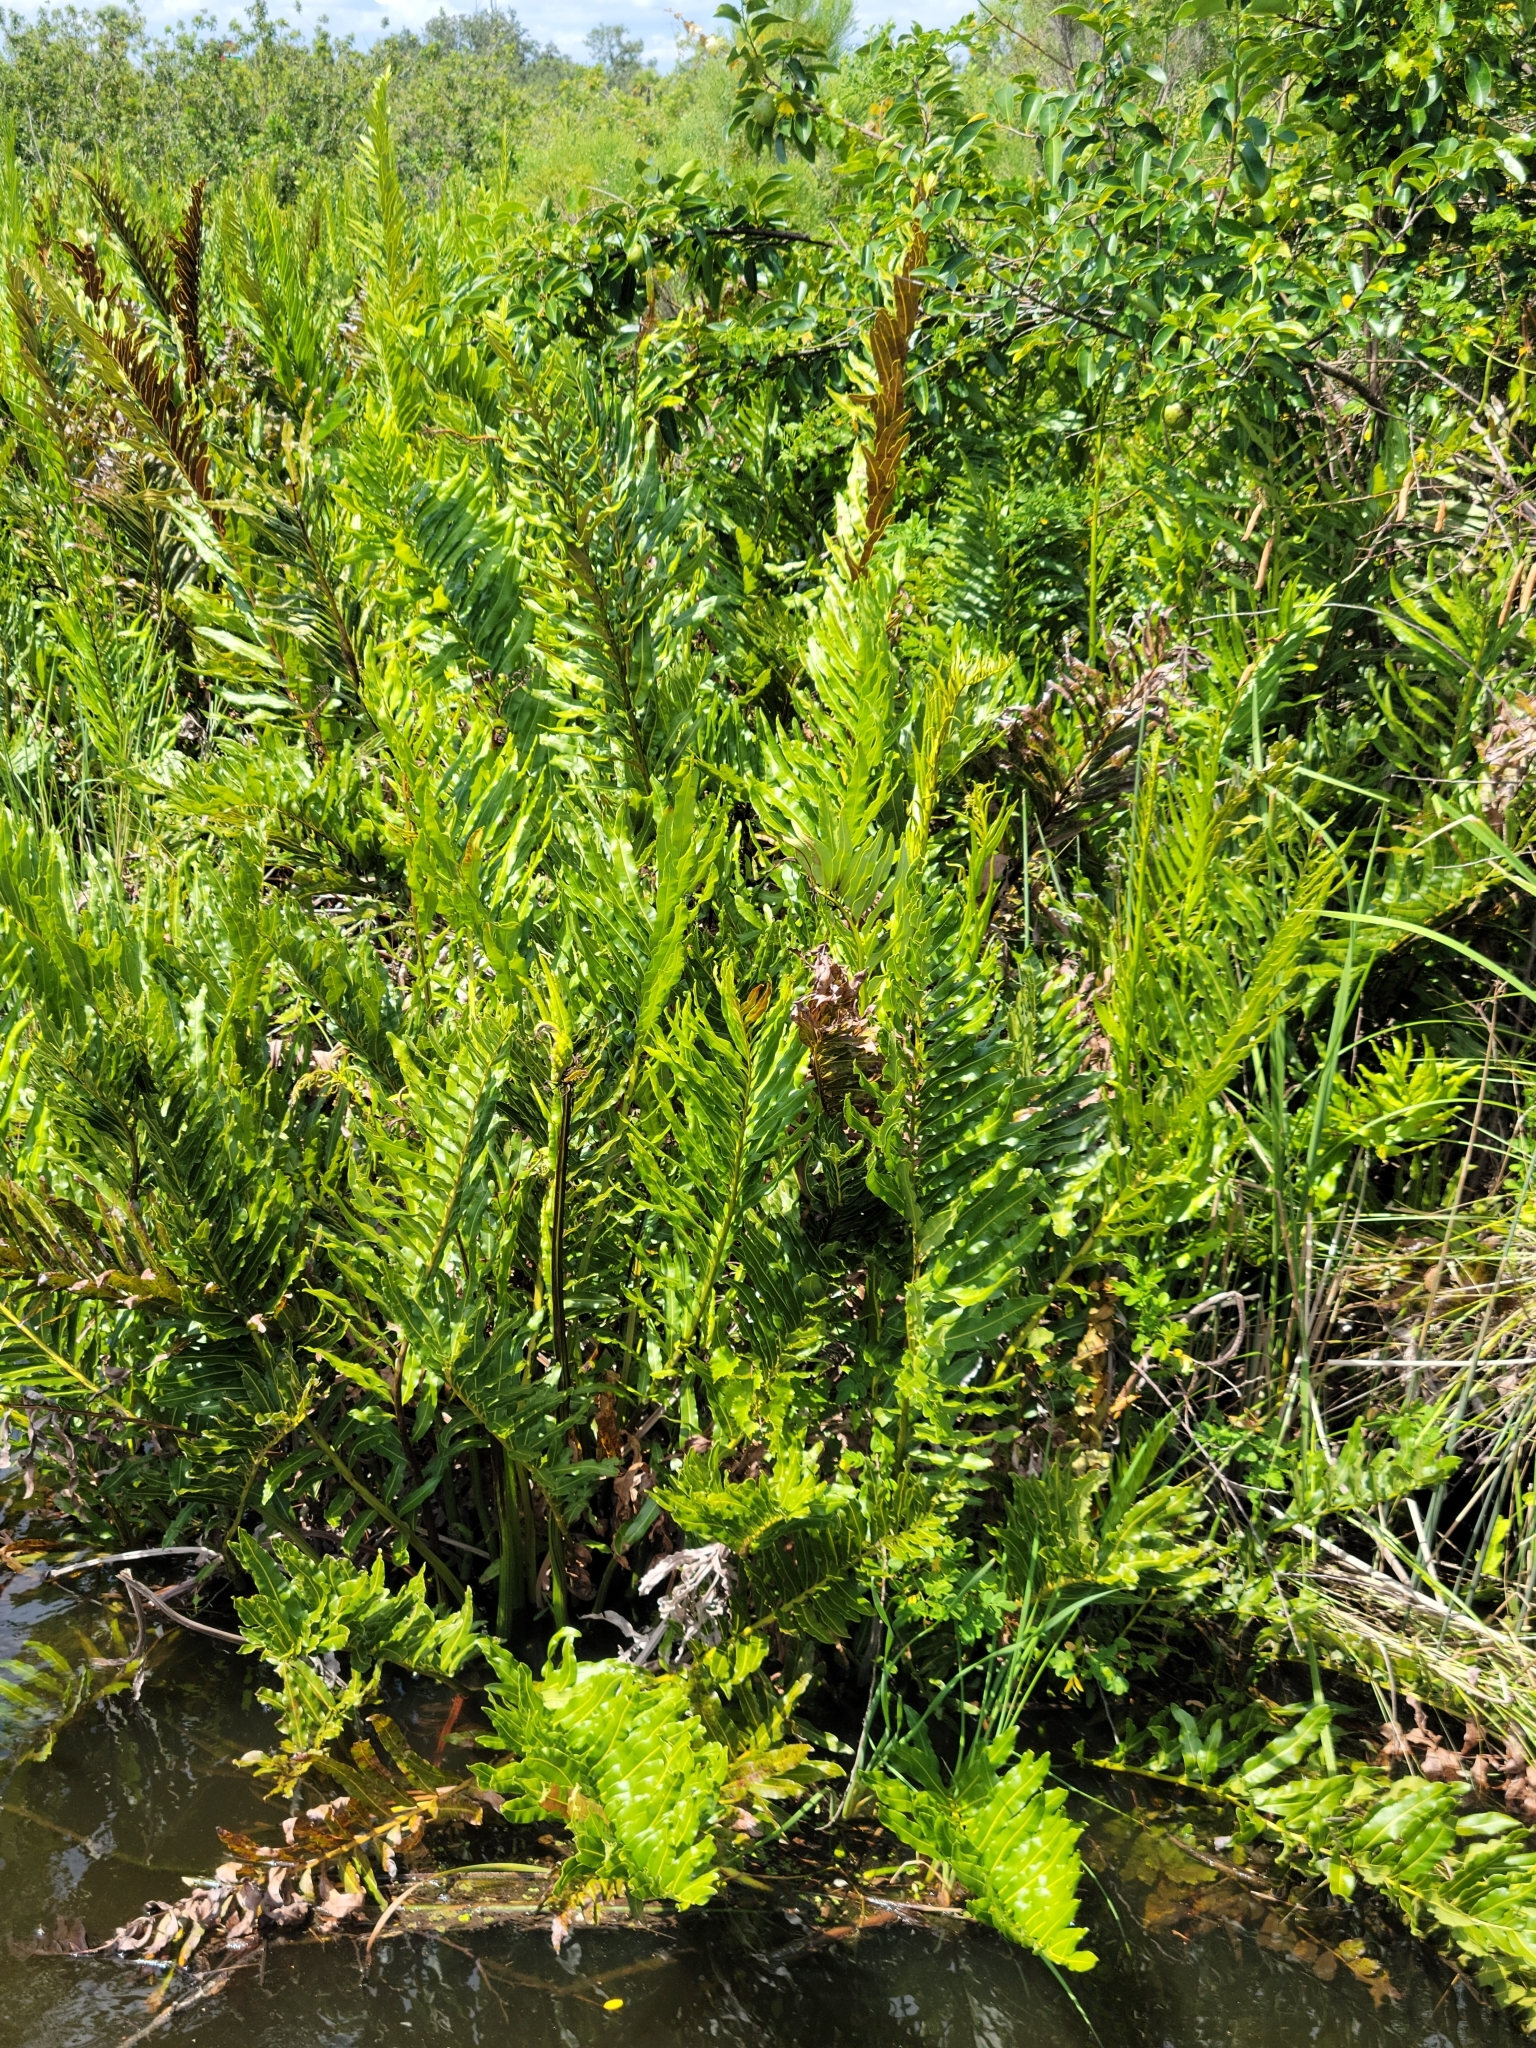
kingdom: Plantae
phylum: Tracheophyta
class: Polypodiopsida
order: Polypodiales
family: Pteridaceae
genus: Acrostichum
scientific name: Acrostichum danaeifolium
